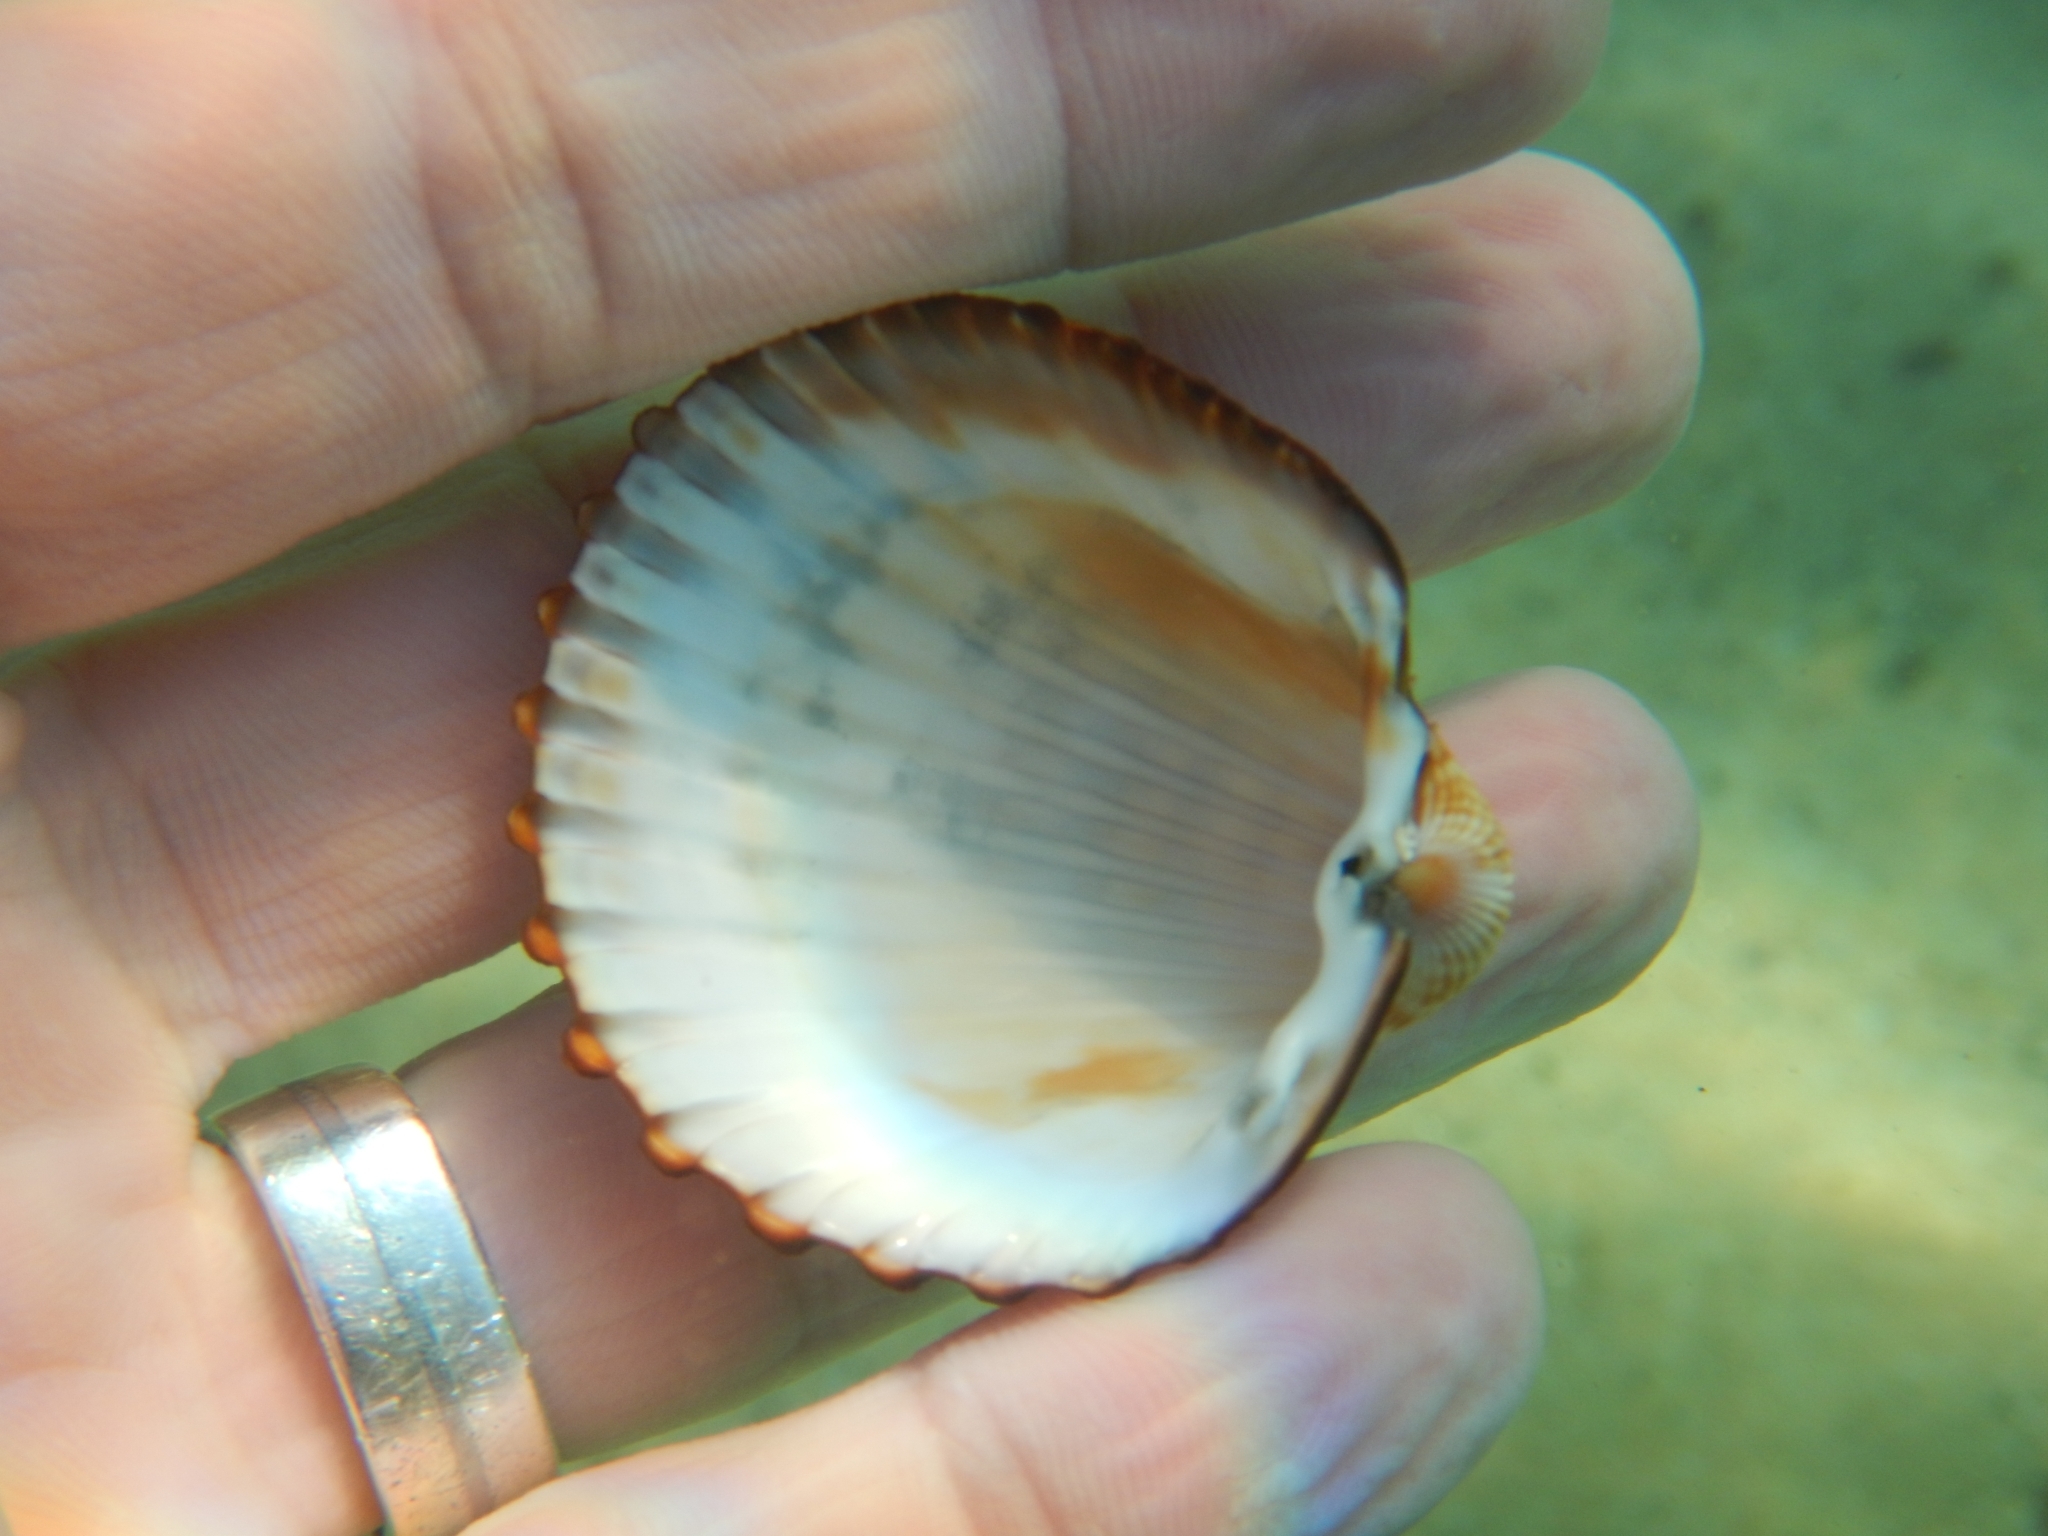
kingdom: Animalia
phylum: Mollusca
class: Bivalvia
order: Cardiida
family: Cardiidae
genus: Acanthocardia
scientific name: Acanthocardia echinata
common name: Prickly cockle
